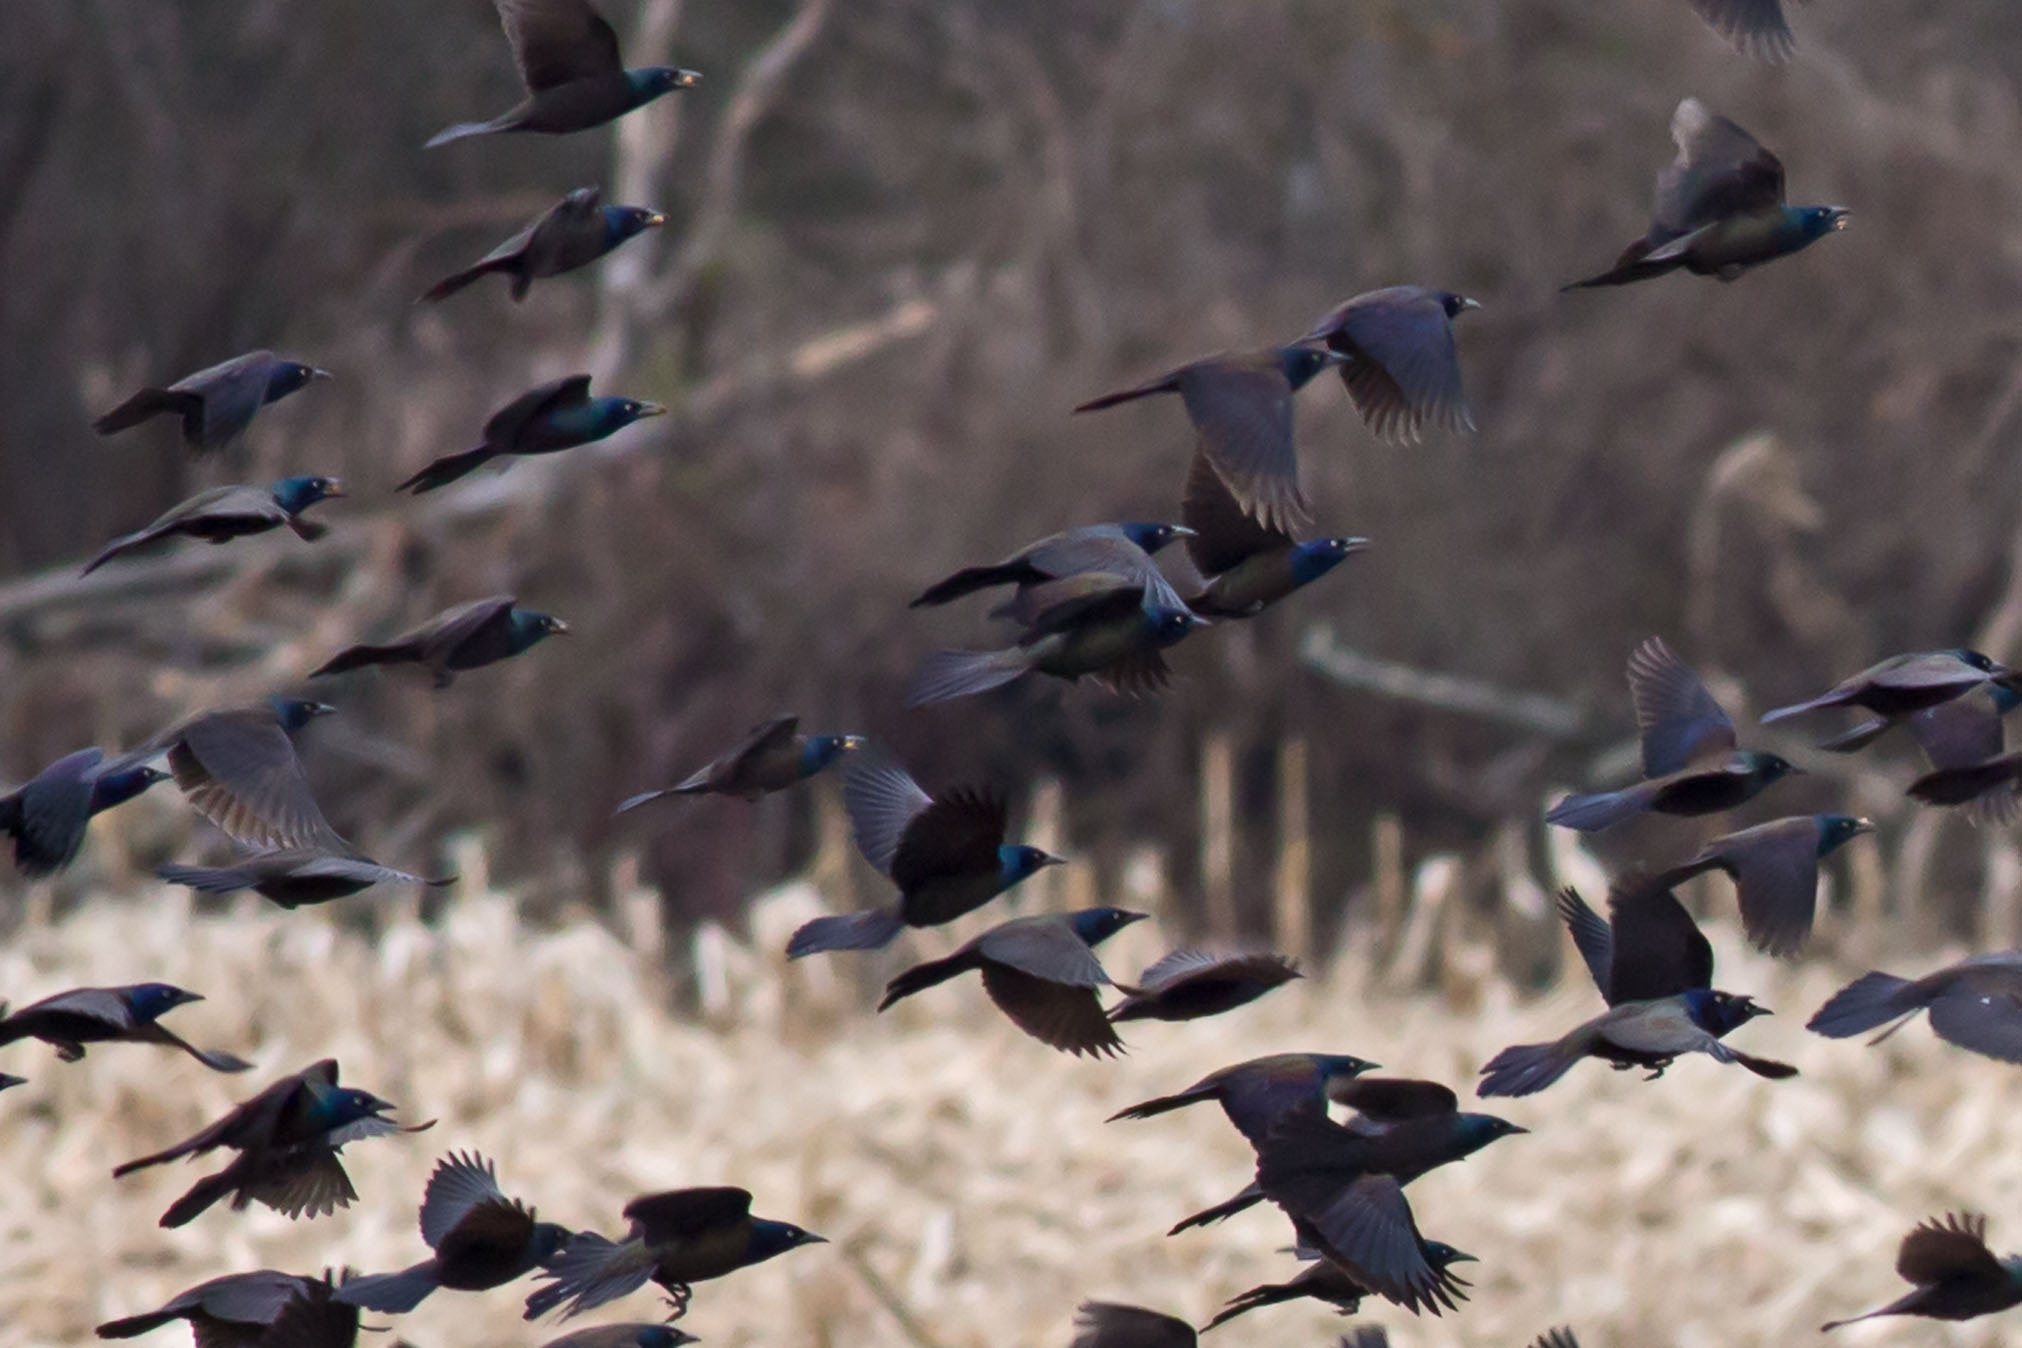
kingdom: Animalia
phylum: Chordata
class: Aves
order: Passeriformes
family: Icteridae
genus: Quiscalus
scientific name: Quiscalus quiscula
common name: Common grackle
